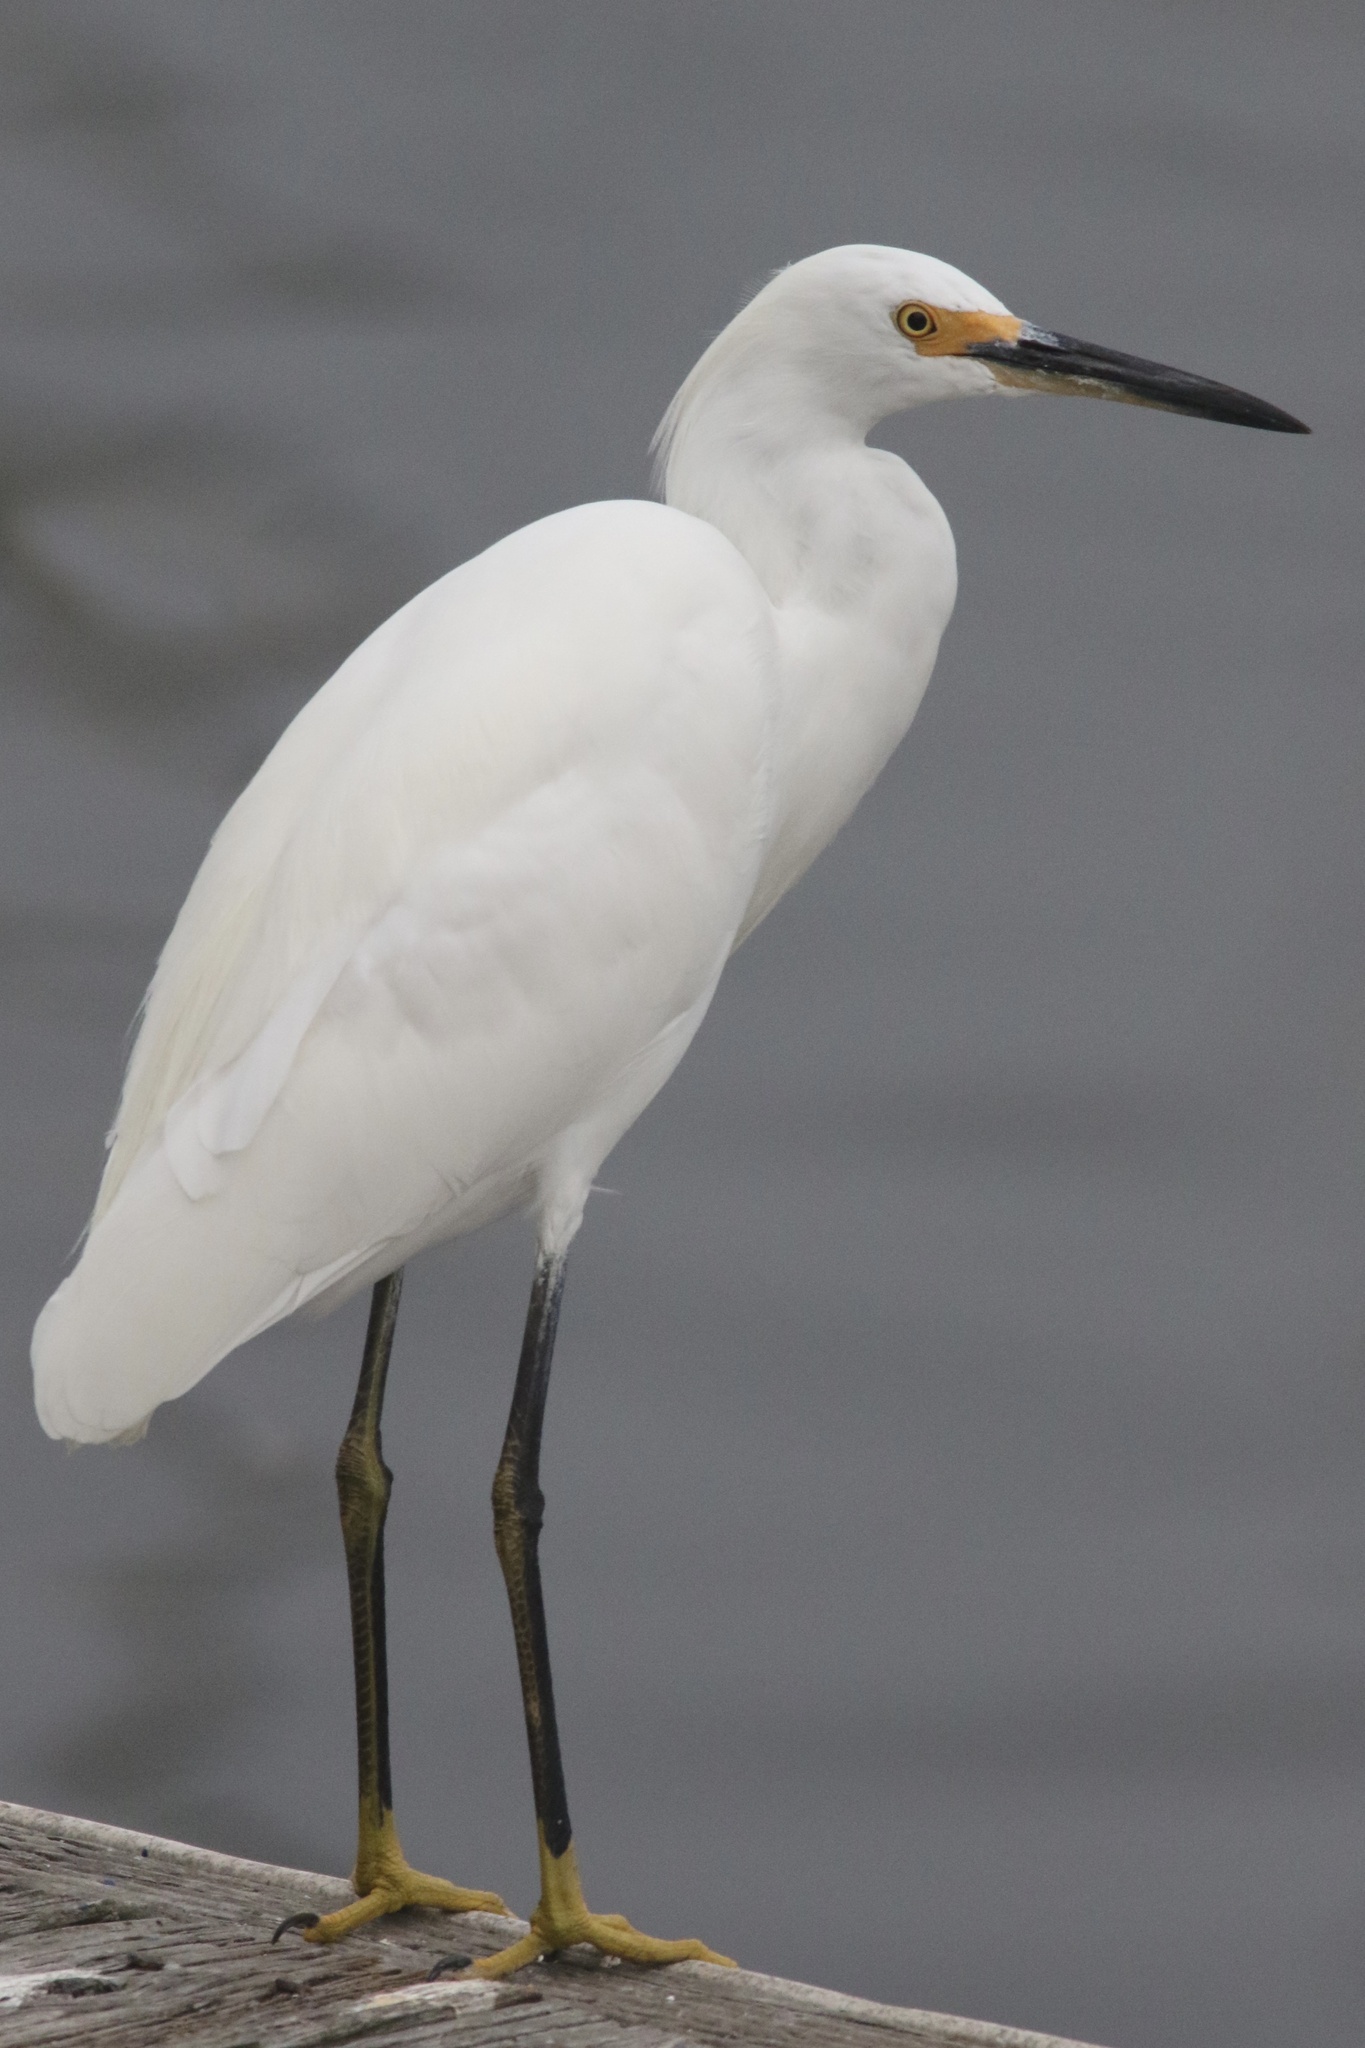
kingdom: Animalia
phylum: Chordata
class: Aves
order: Pelecaniformes
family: Ardeidae
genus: Egretta
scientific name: Egretta thula
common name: Snowy egret
